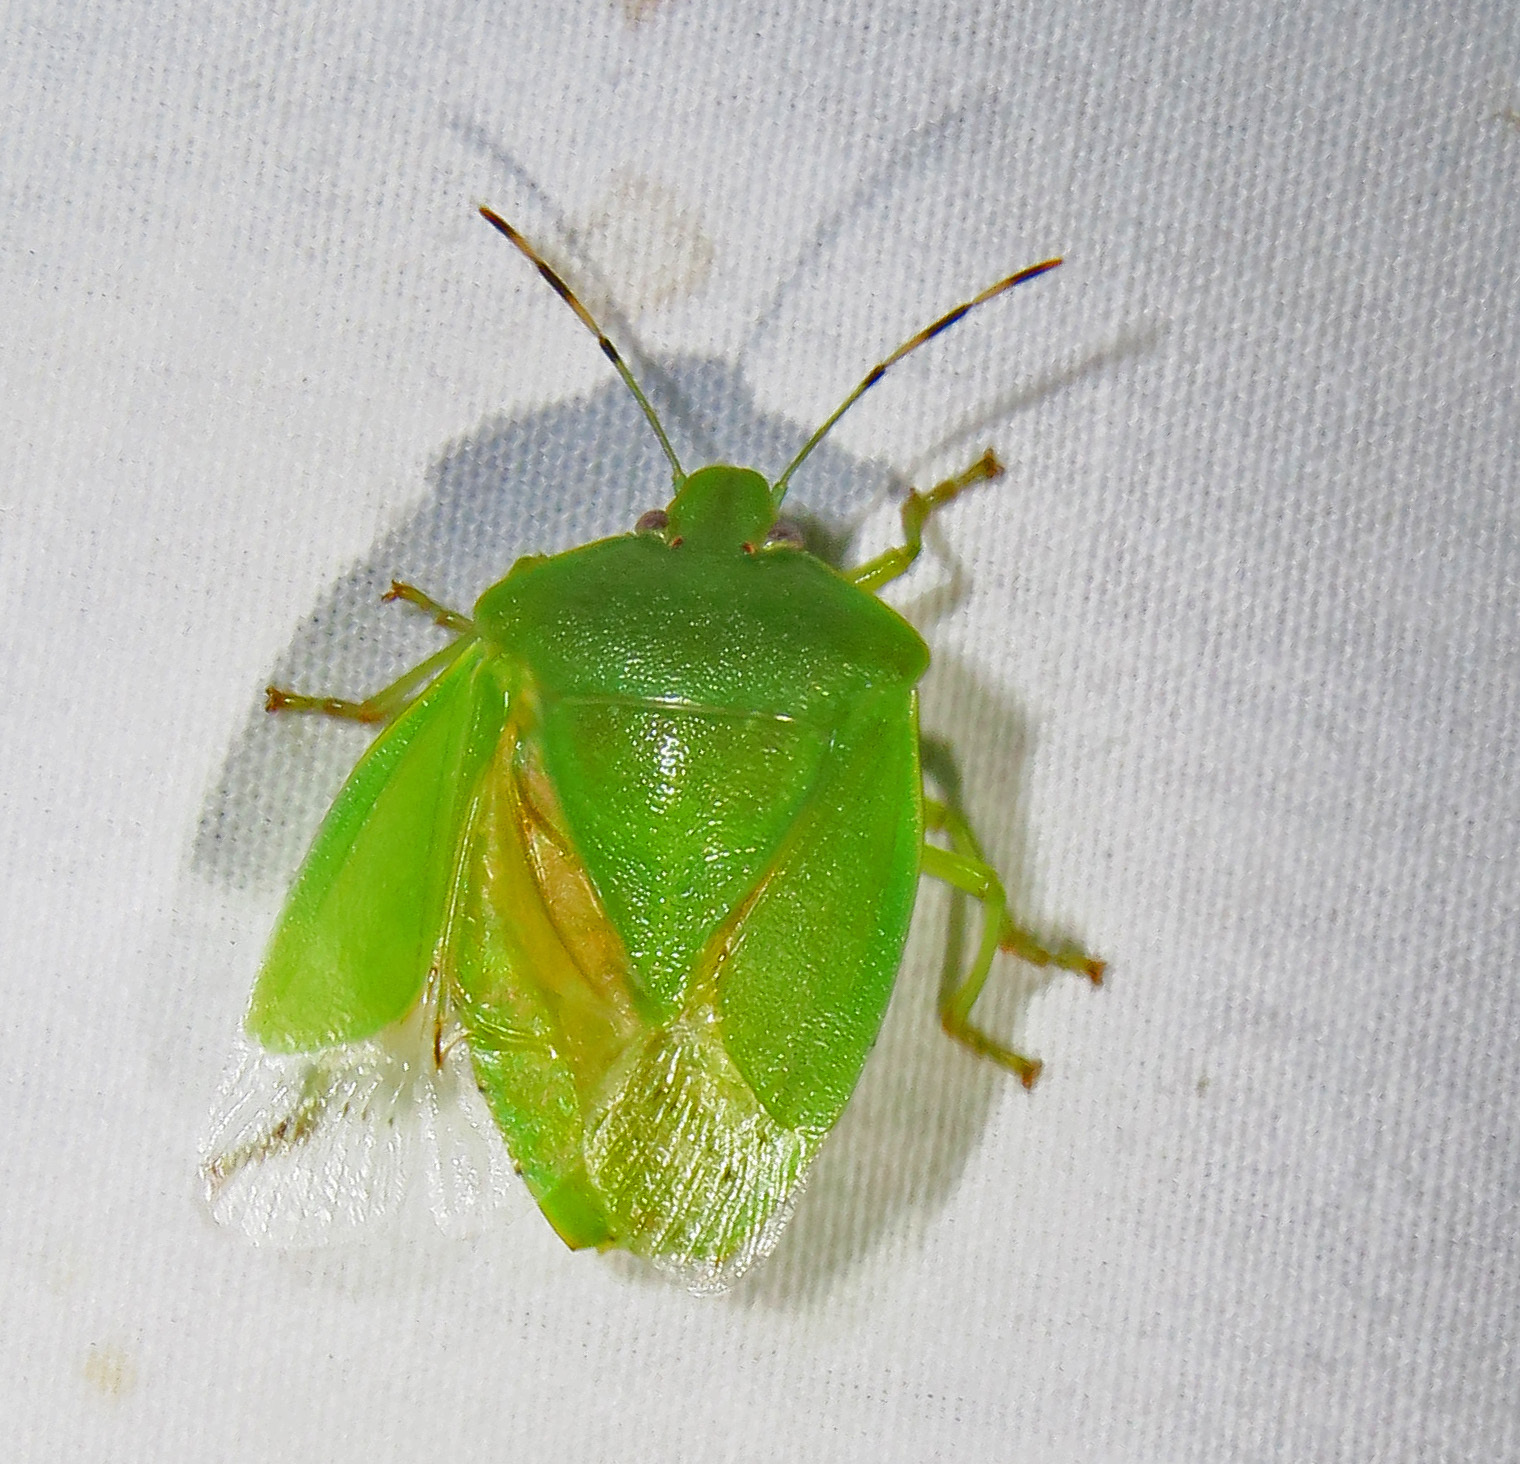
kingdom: Animalia
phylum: Arthropoda
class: Insecta
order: Hemiptera
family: Pentatomidae
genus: Chinavia
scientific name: Chinavia hilaris
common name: Green stink bug
